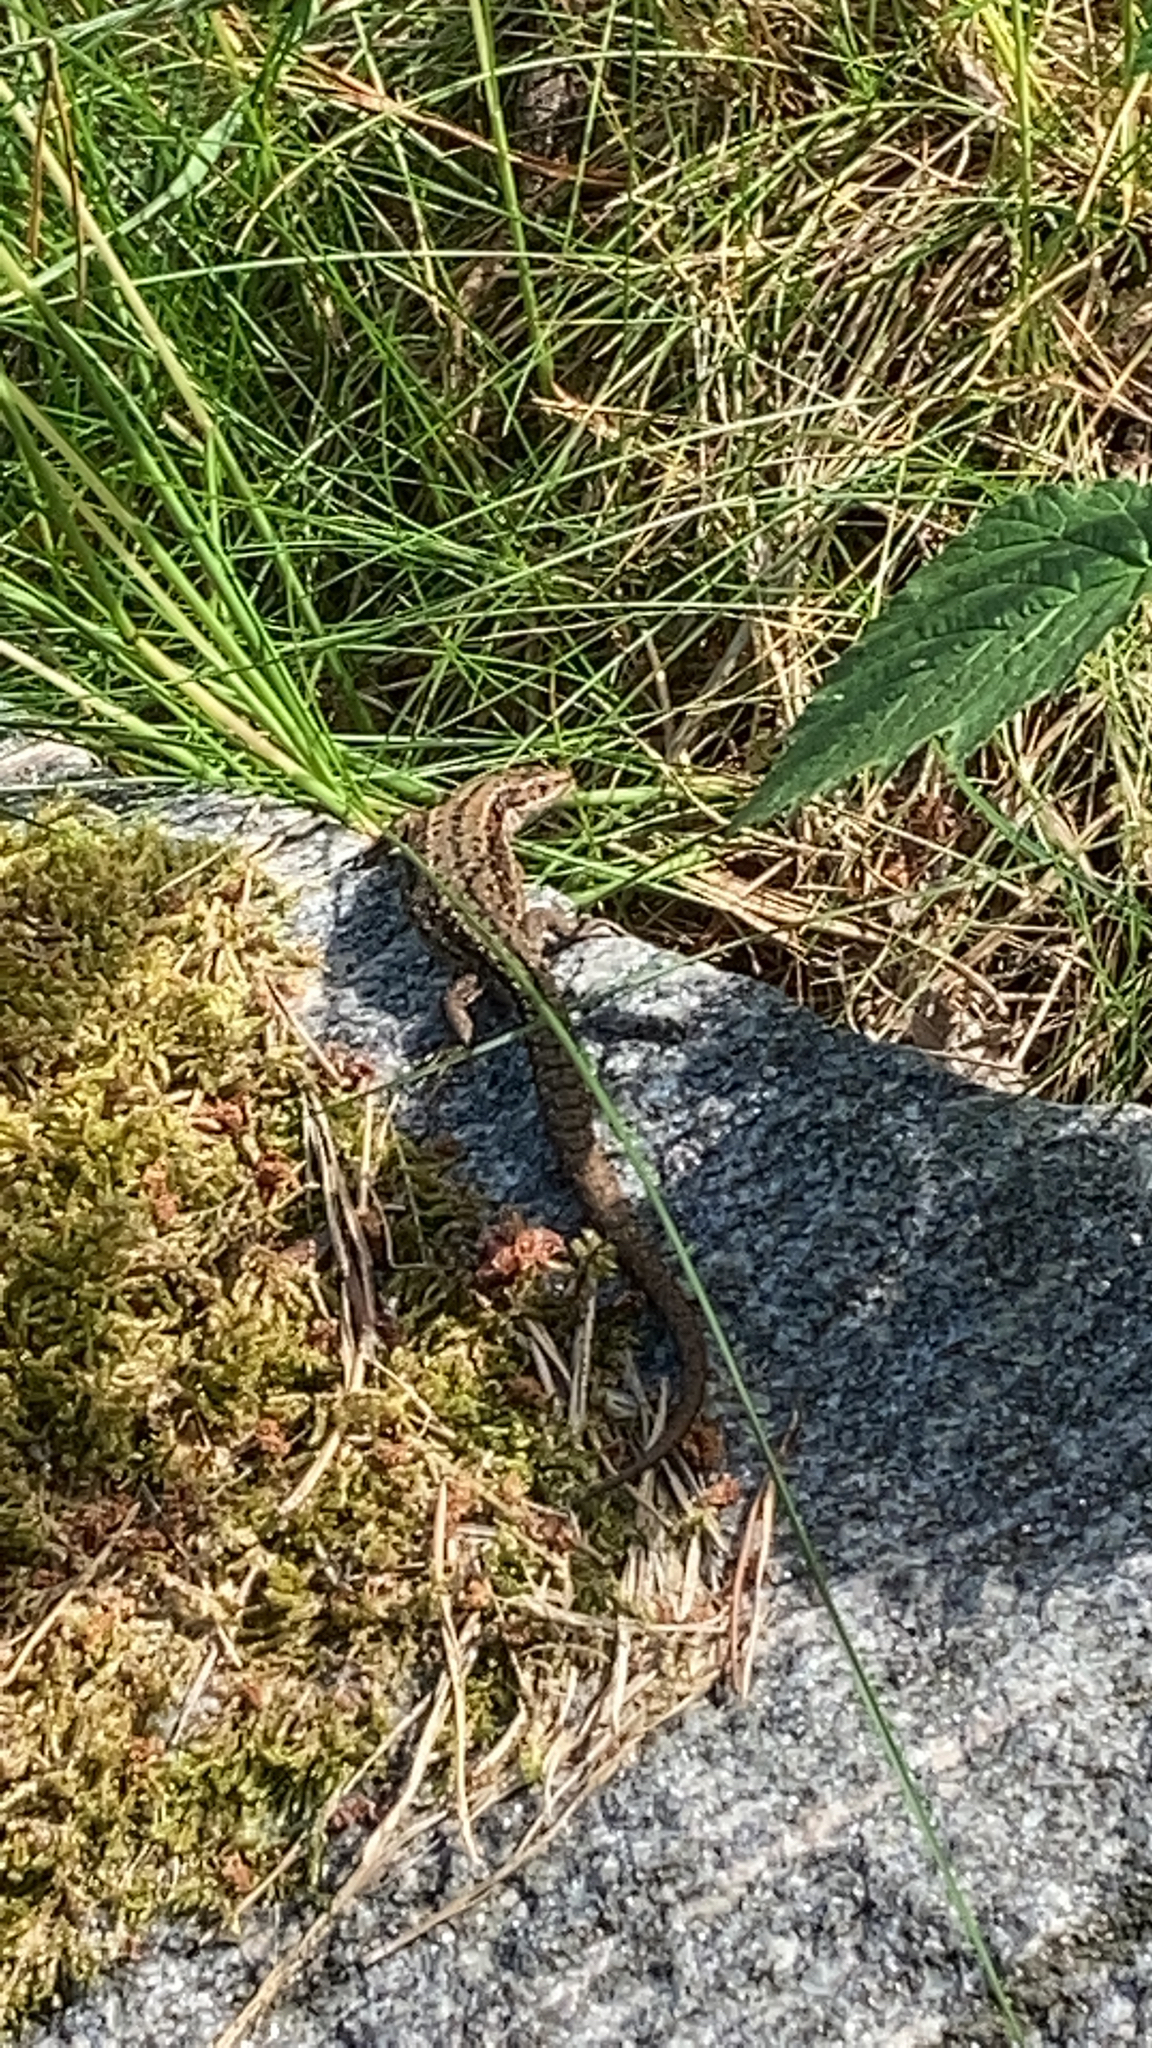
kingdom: Animalia
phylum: Chordata
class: Squamata
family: Lacertidae
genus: Zootoca
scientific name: Zootoca vivipara
